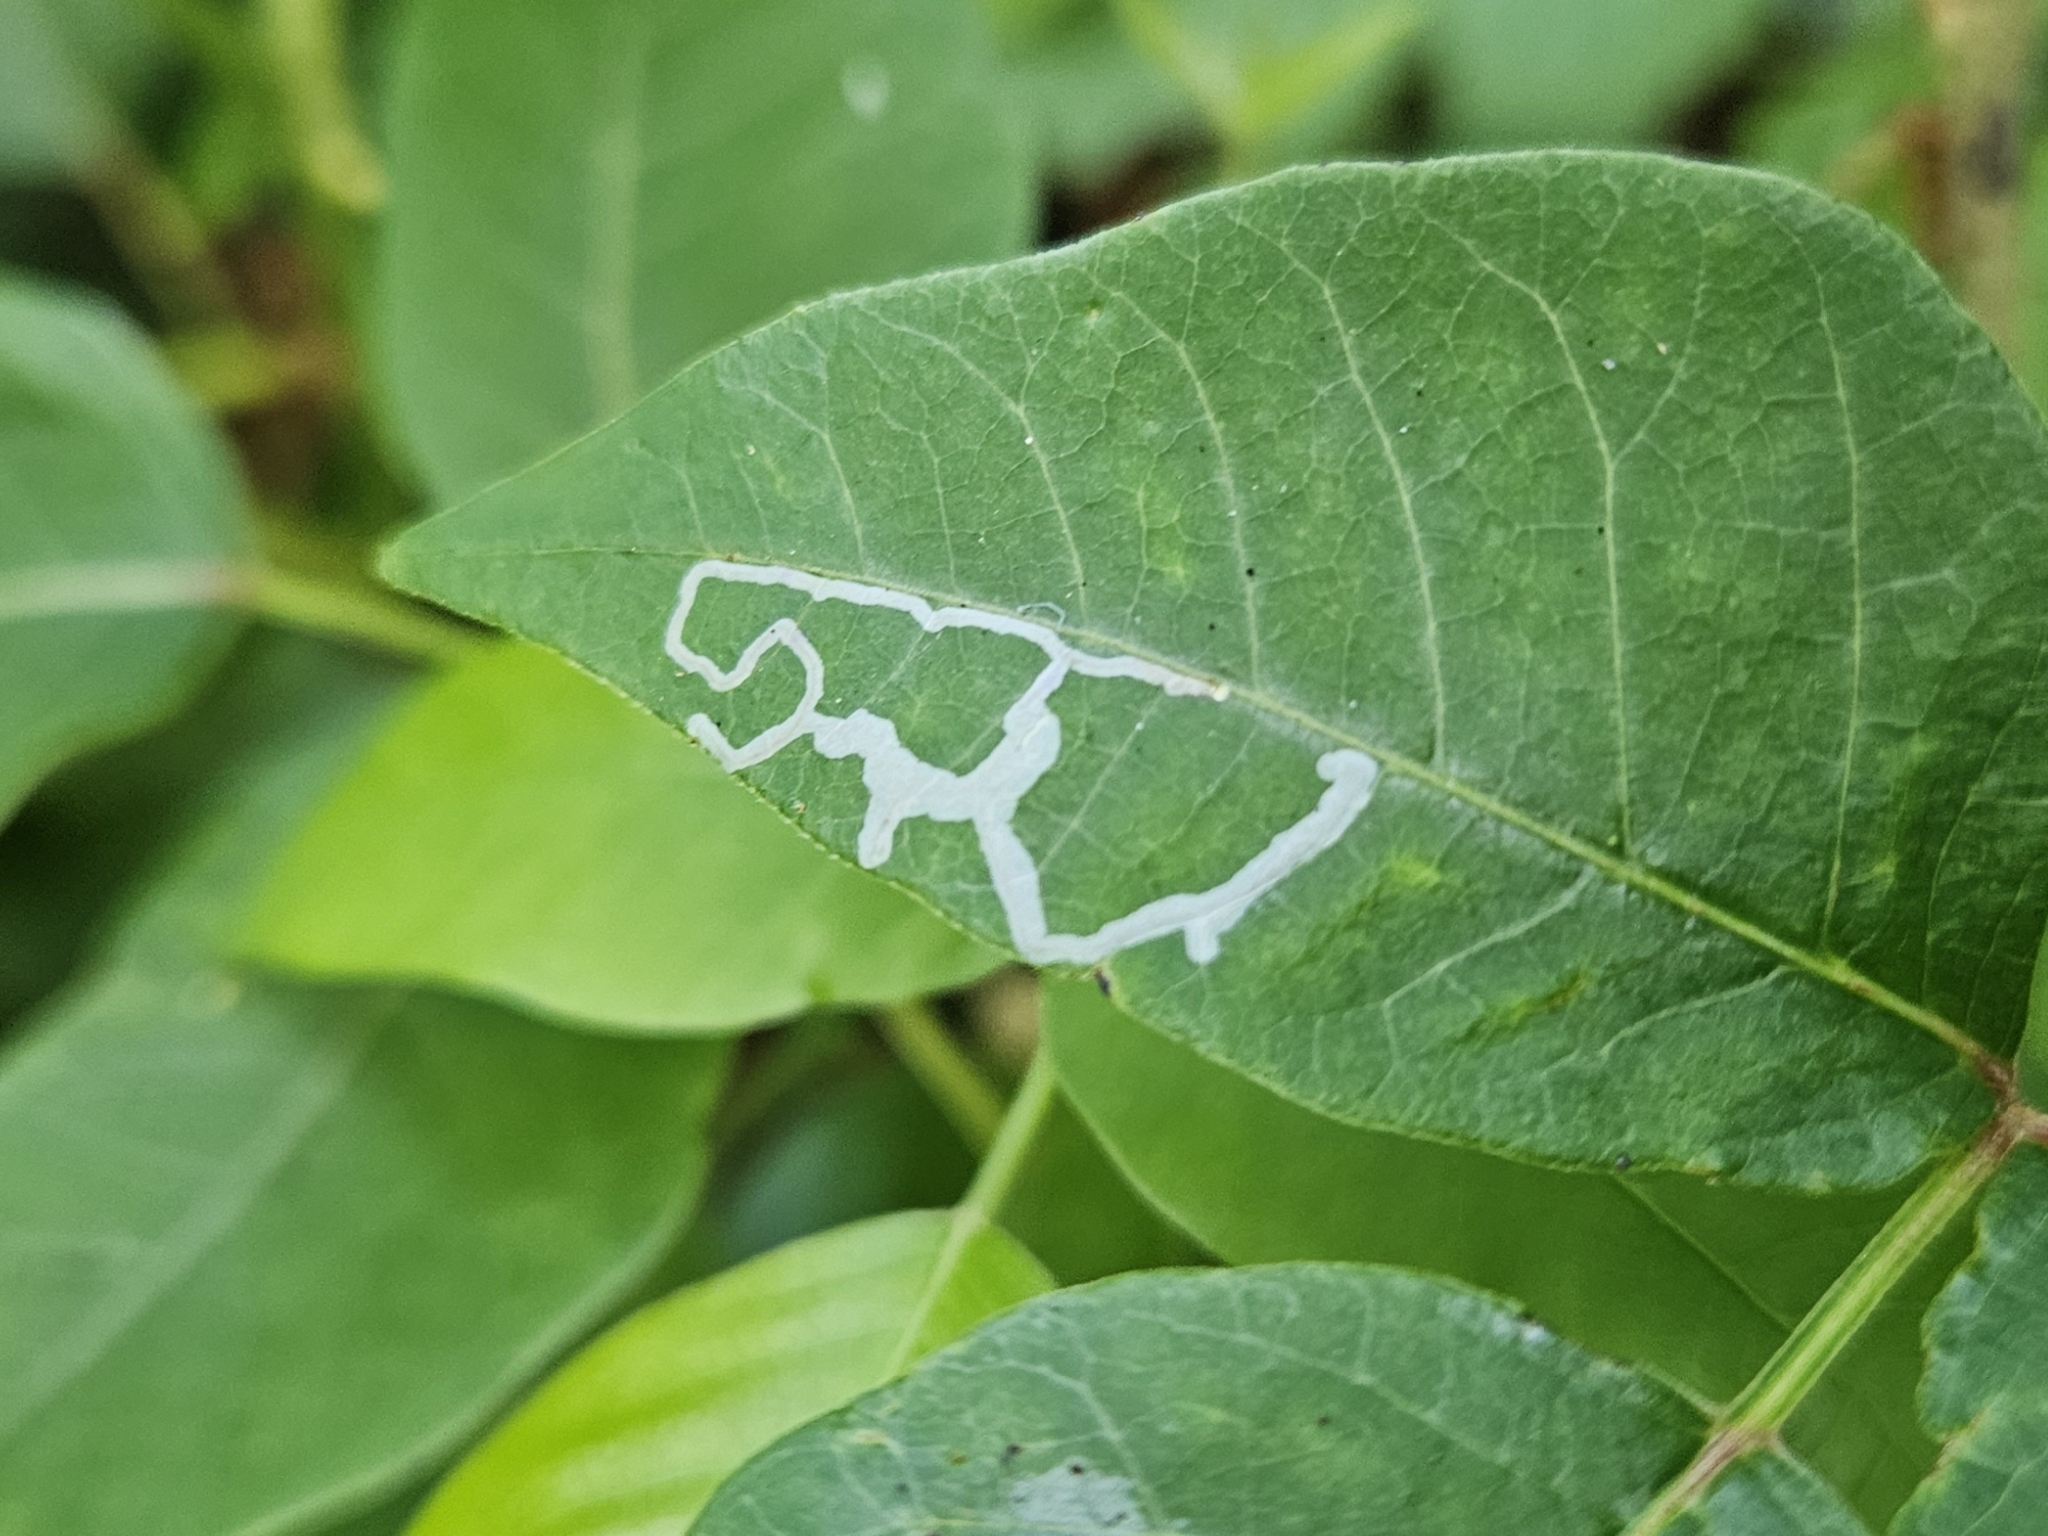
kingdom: Animalia
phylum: Arthropoda
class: Insecta
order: Lepidoptera
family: Gracillariidae
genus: Caloptilia
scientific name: Caloptilia rhoifoliella
